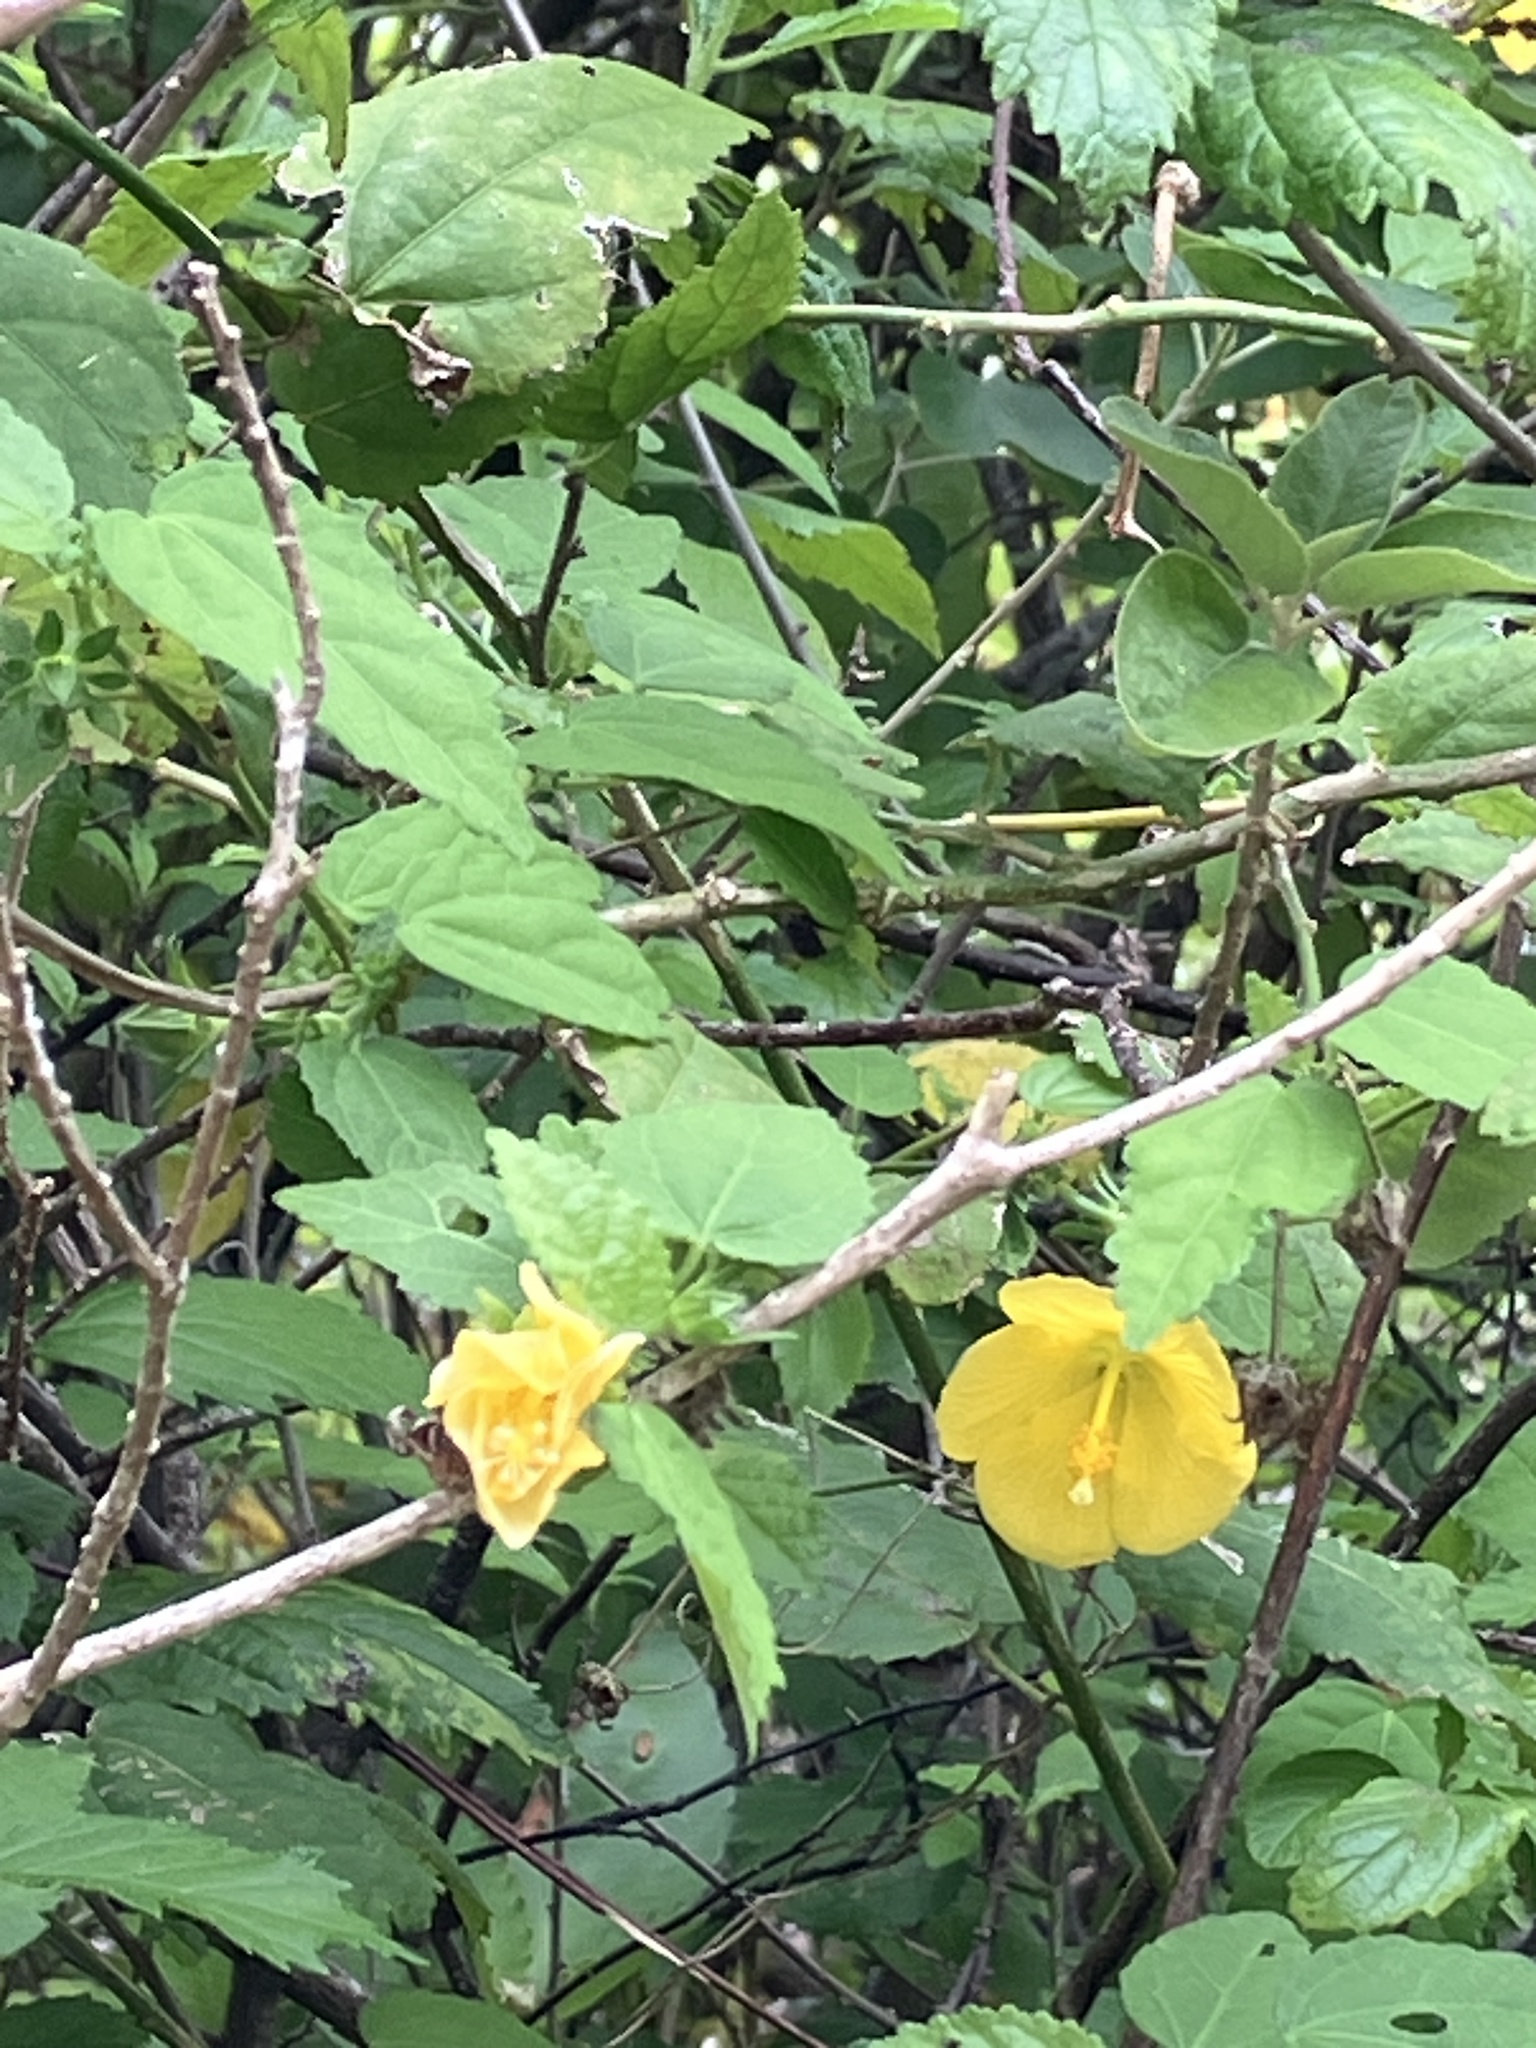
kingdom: Plantae
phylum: Tracheophyta
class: Magnoliopsida
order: Malvales
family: Malvaceae
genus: Pavonia
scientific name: Pavonia spinifex
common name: Ginger bush
